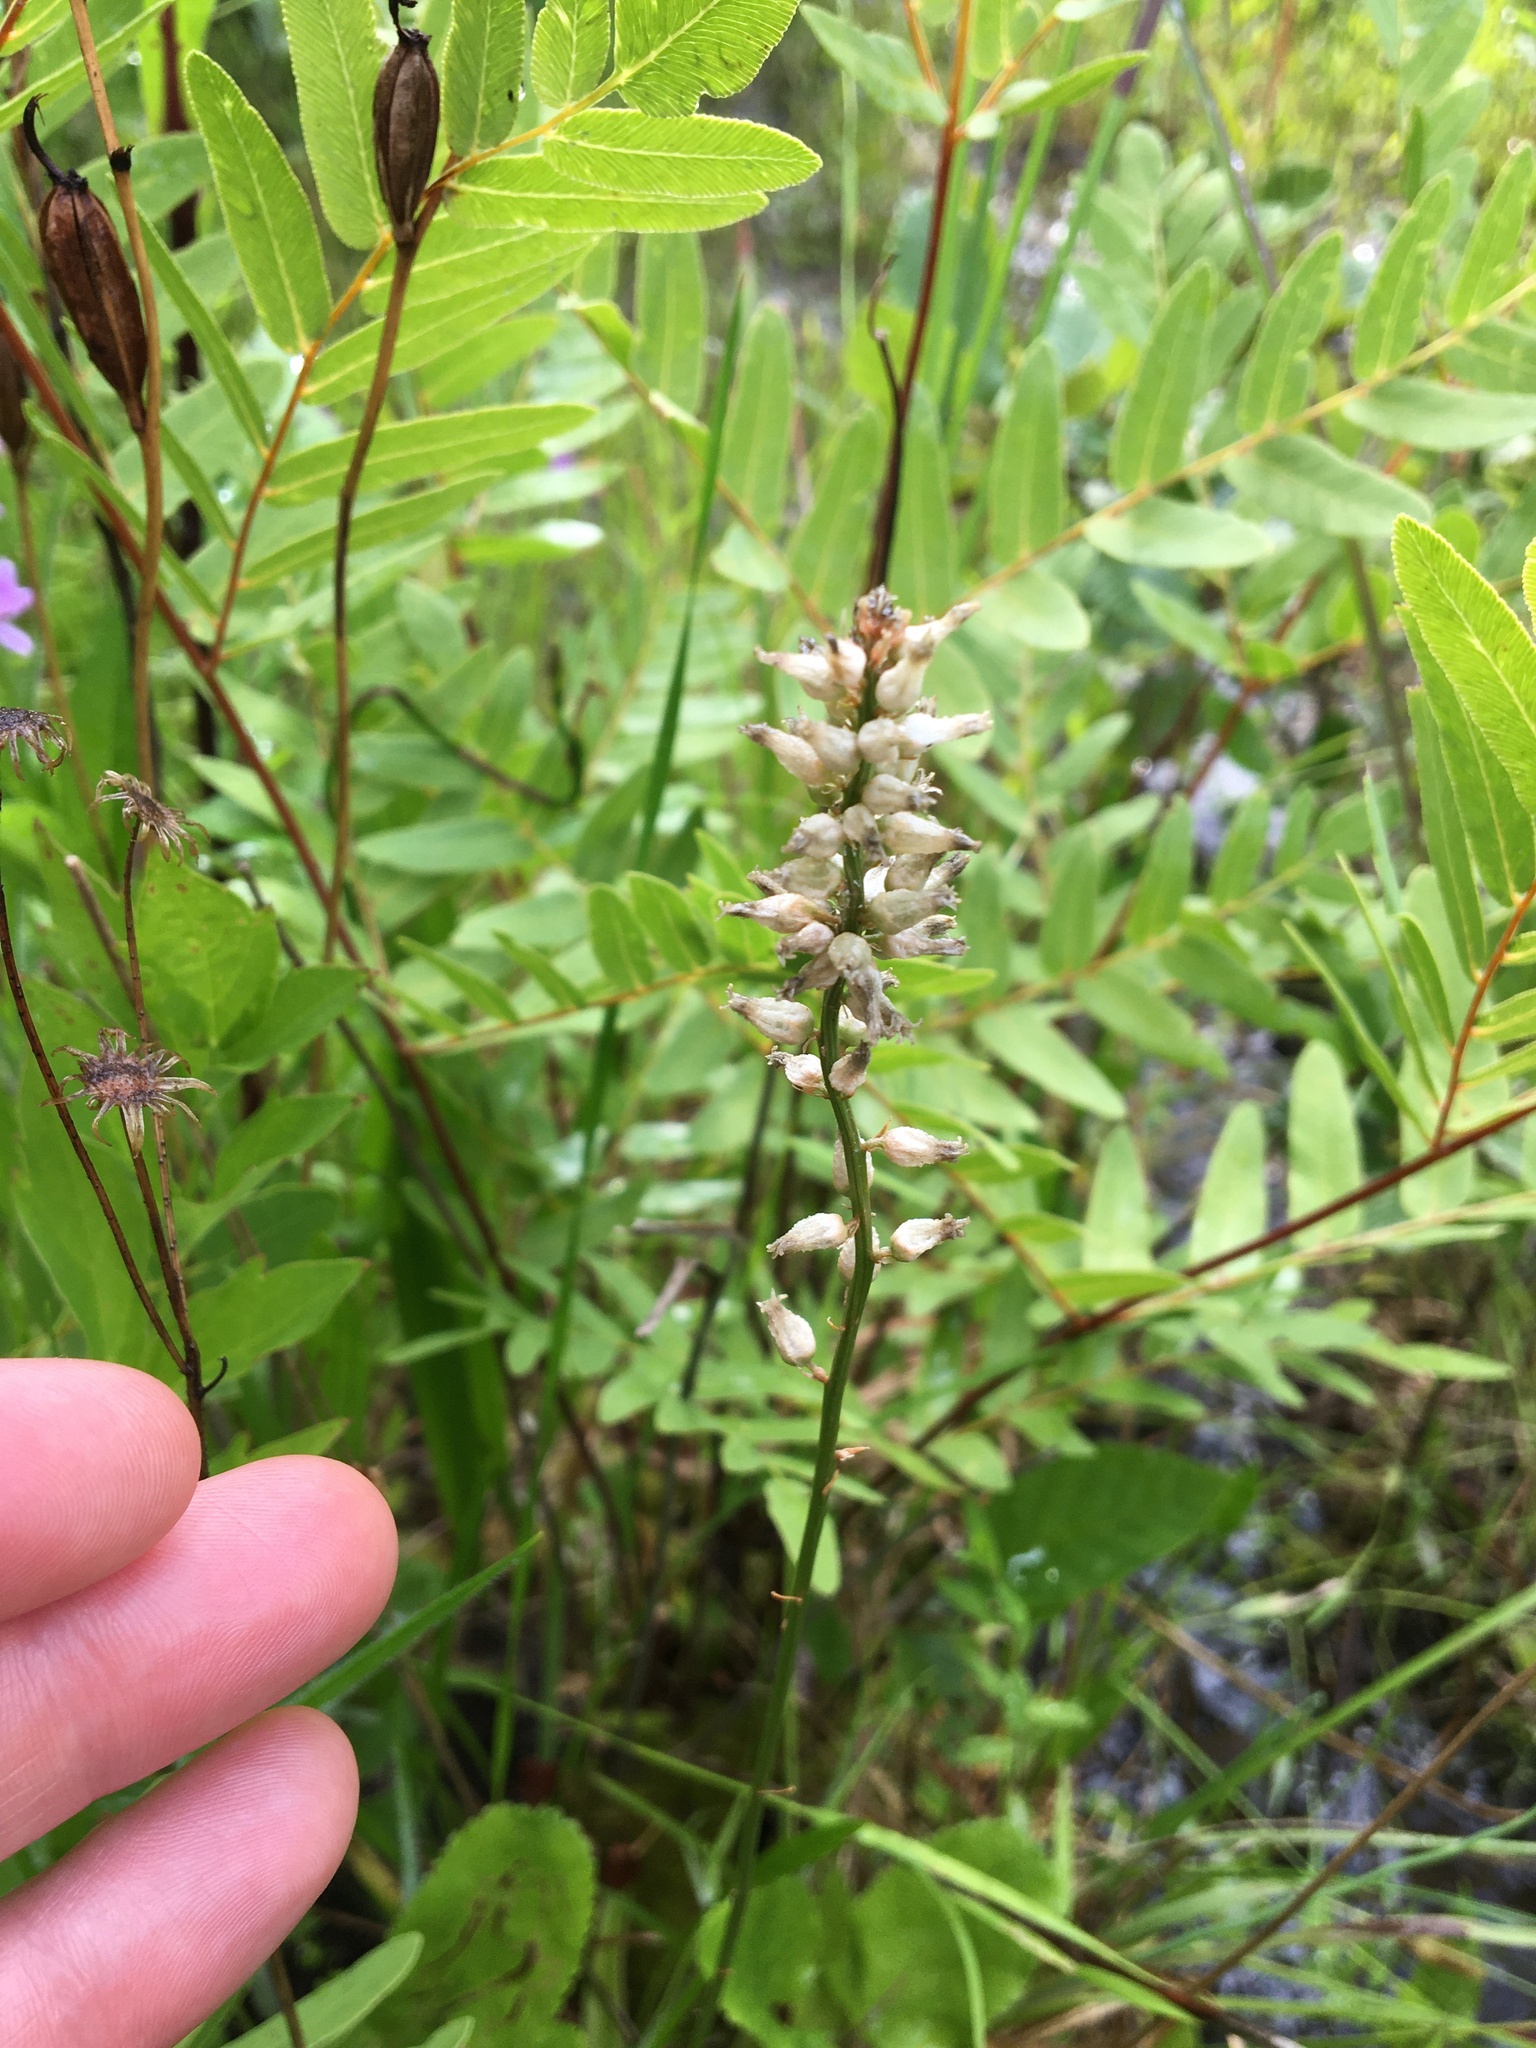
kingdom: Plantae
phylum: Tracheophyta
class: Liliopsida
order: Dioscoreales
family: Nartheciaceae
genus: Aletris
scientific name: Aletris farinosa
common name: Colicroot
